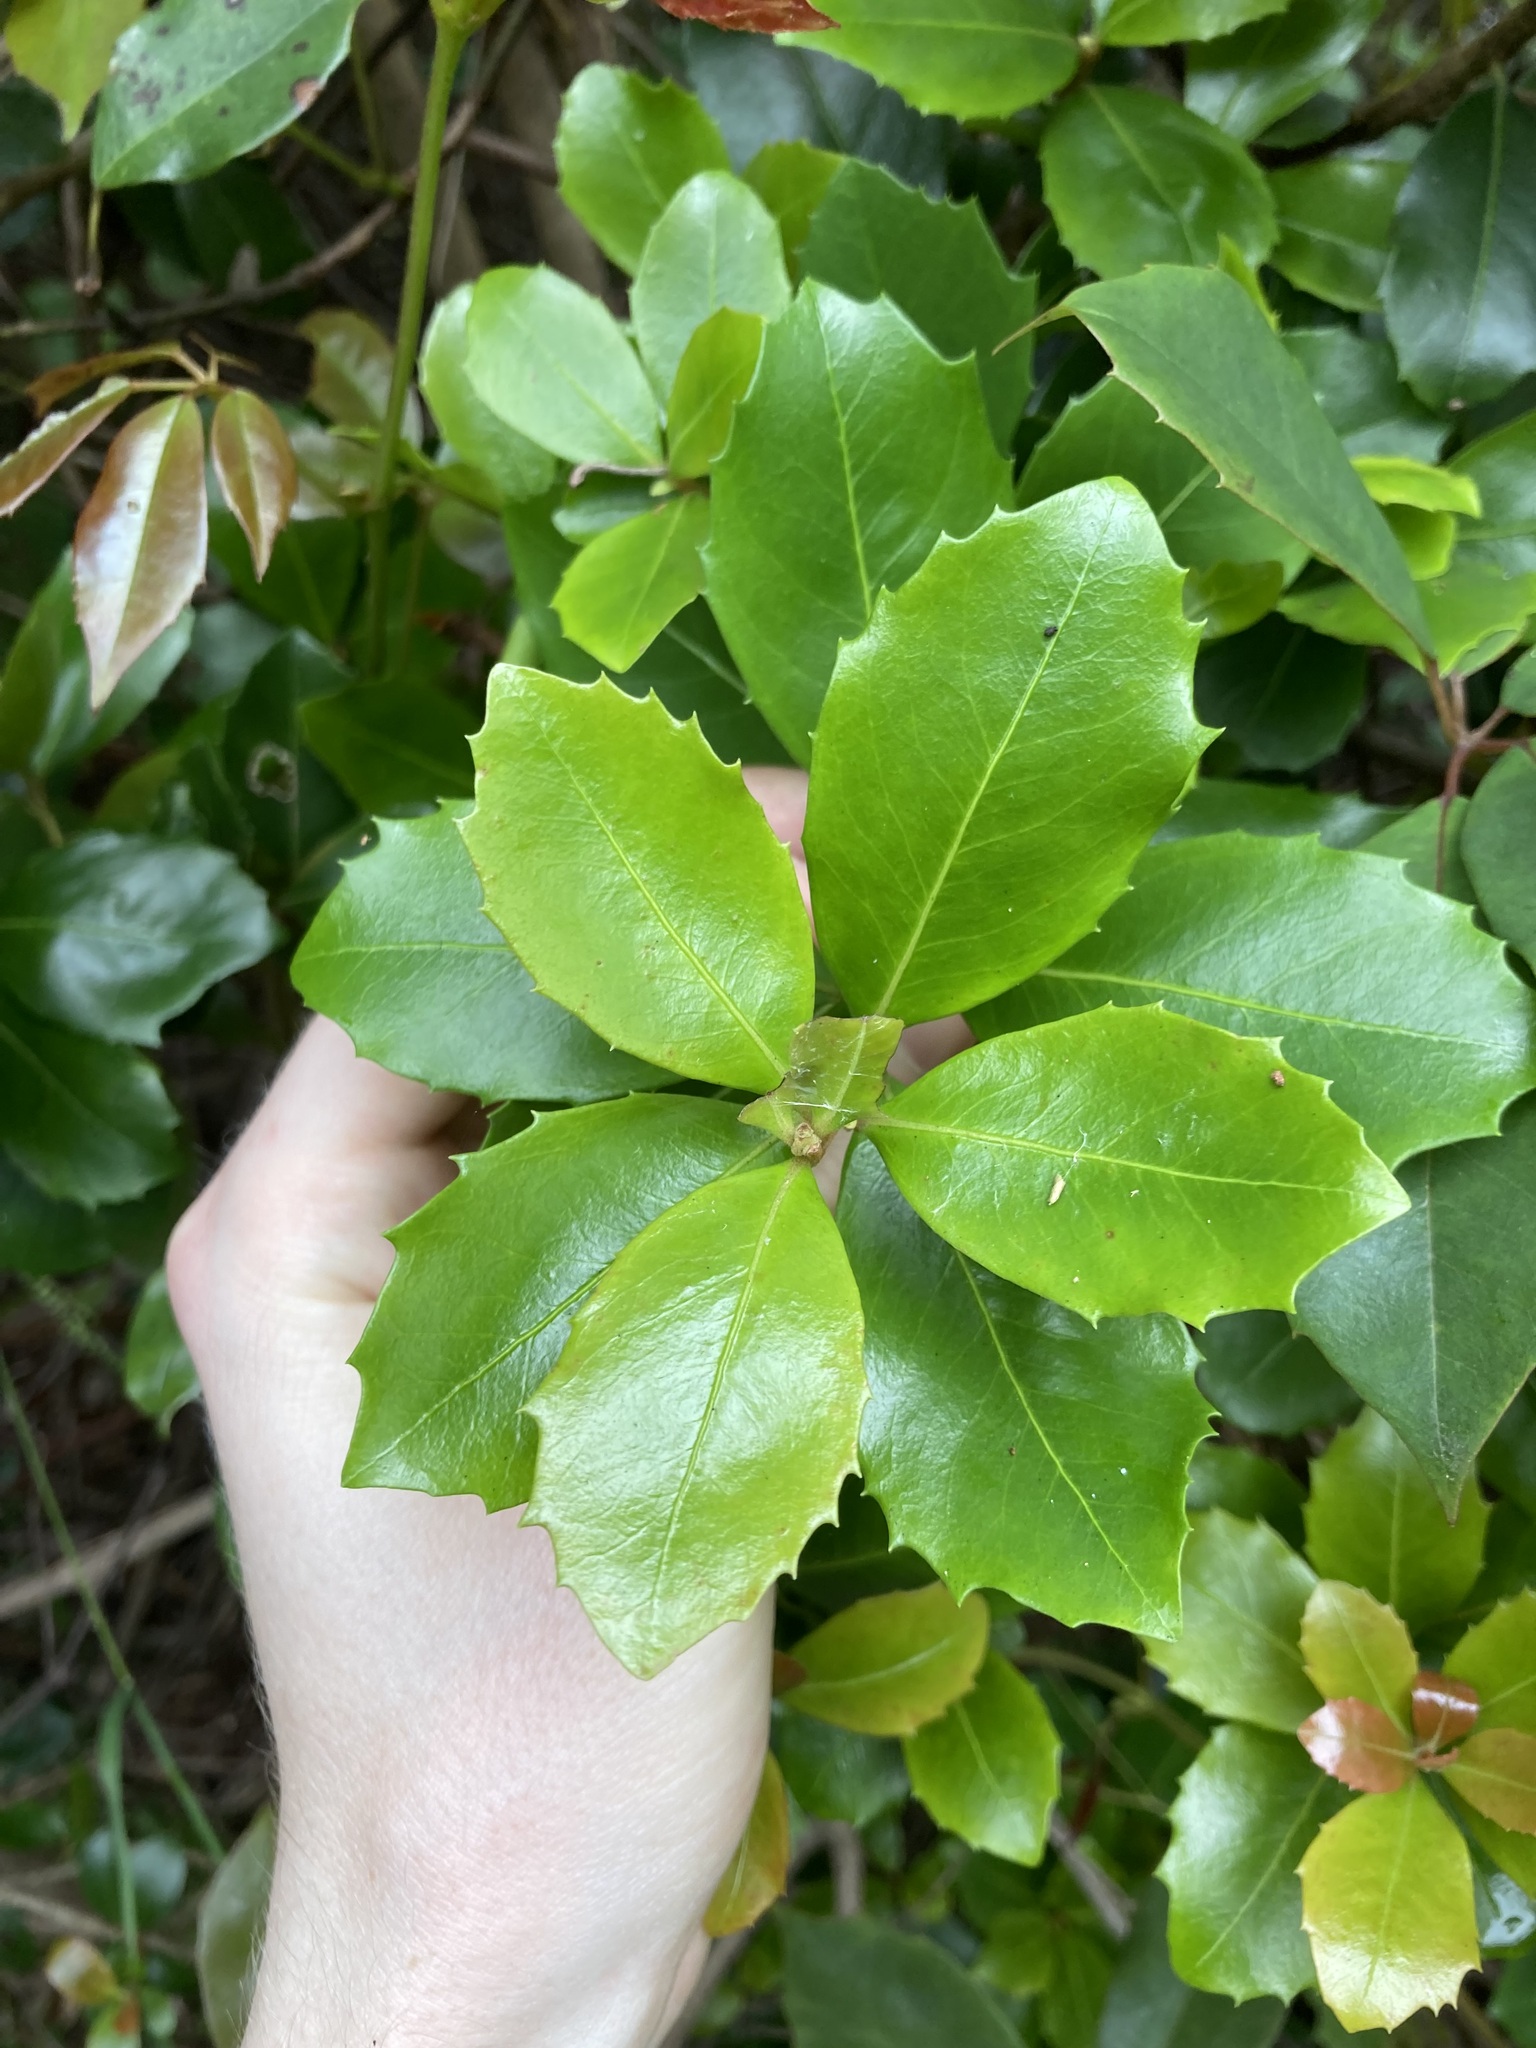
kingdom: Plantae
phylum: Tracheophyta
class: Magnoliopsida
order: Ericales
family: Primulaceae
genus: Myrsine
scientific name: Myrsine variabilis
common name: Brush muttonwood
